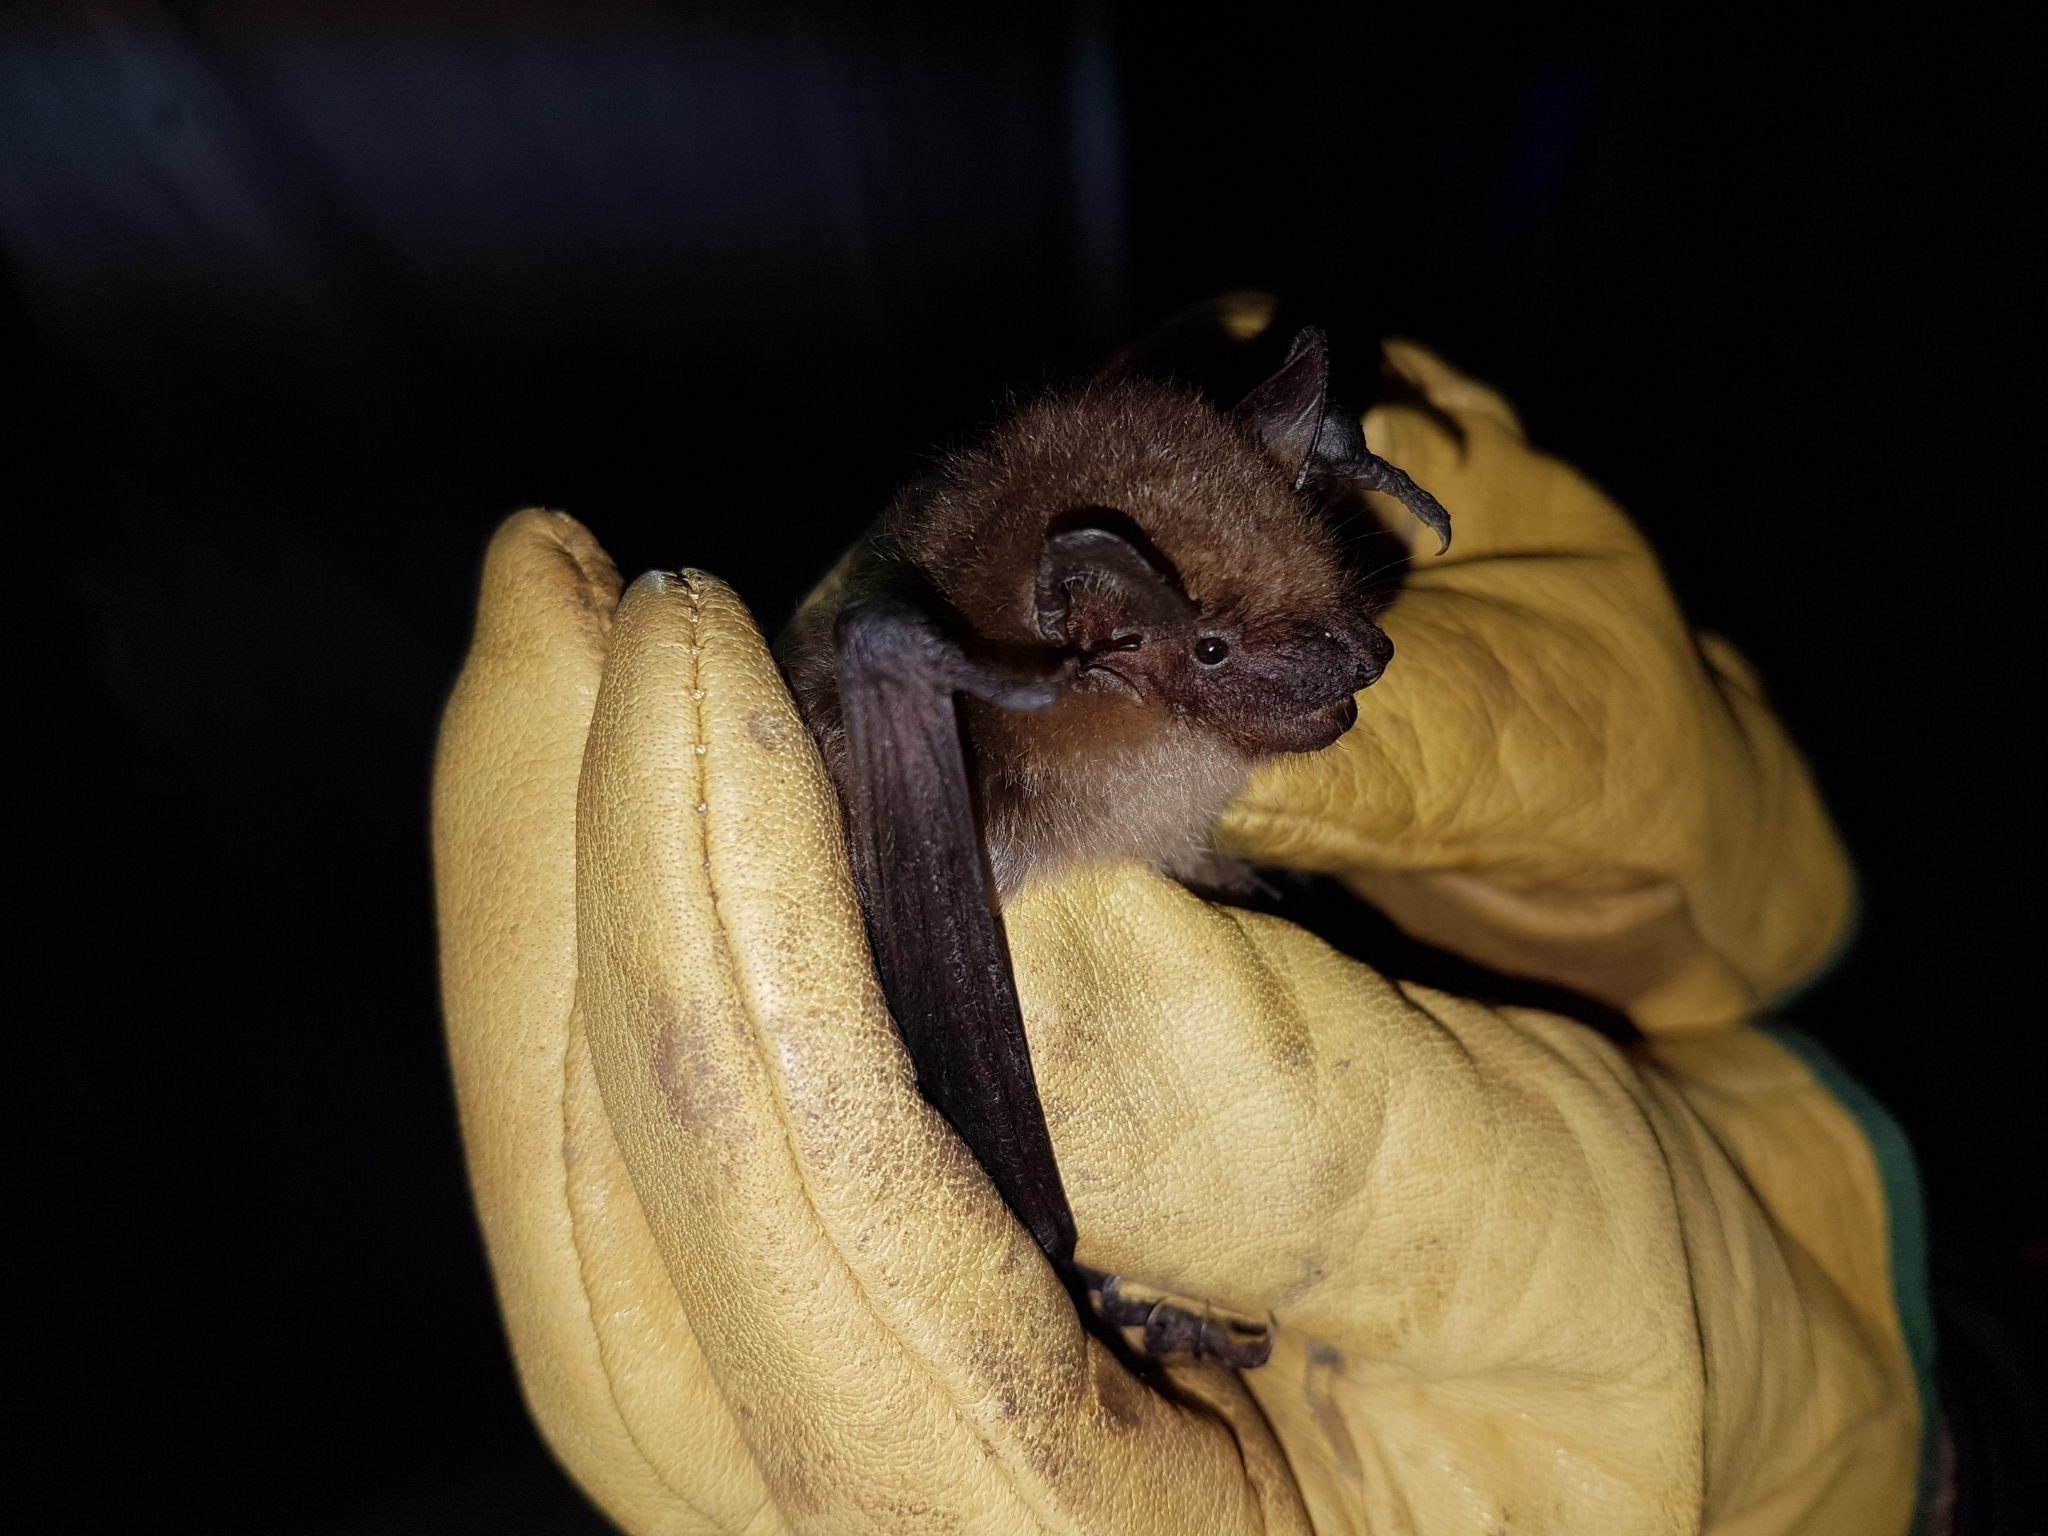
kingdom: Animalia
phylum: Chordata
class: Mammalia
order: Chiroptera
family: Vespertilionidae
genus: Eptesicus
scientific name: Eptesicus serotinus
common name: Serotine
